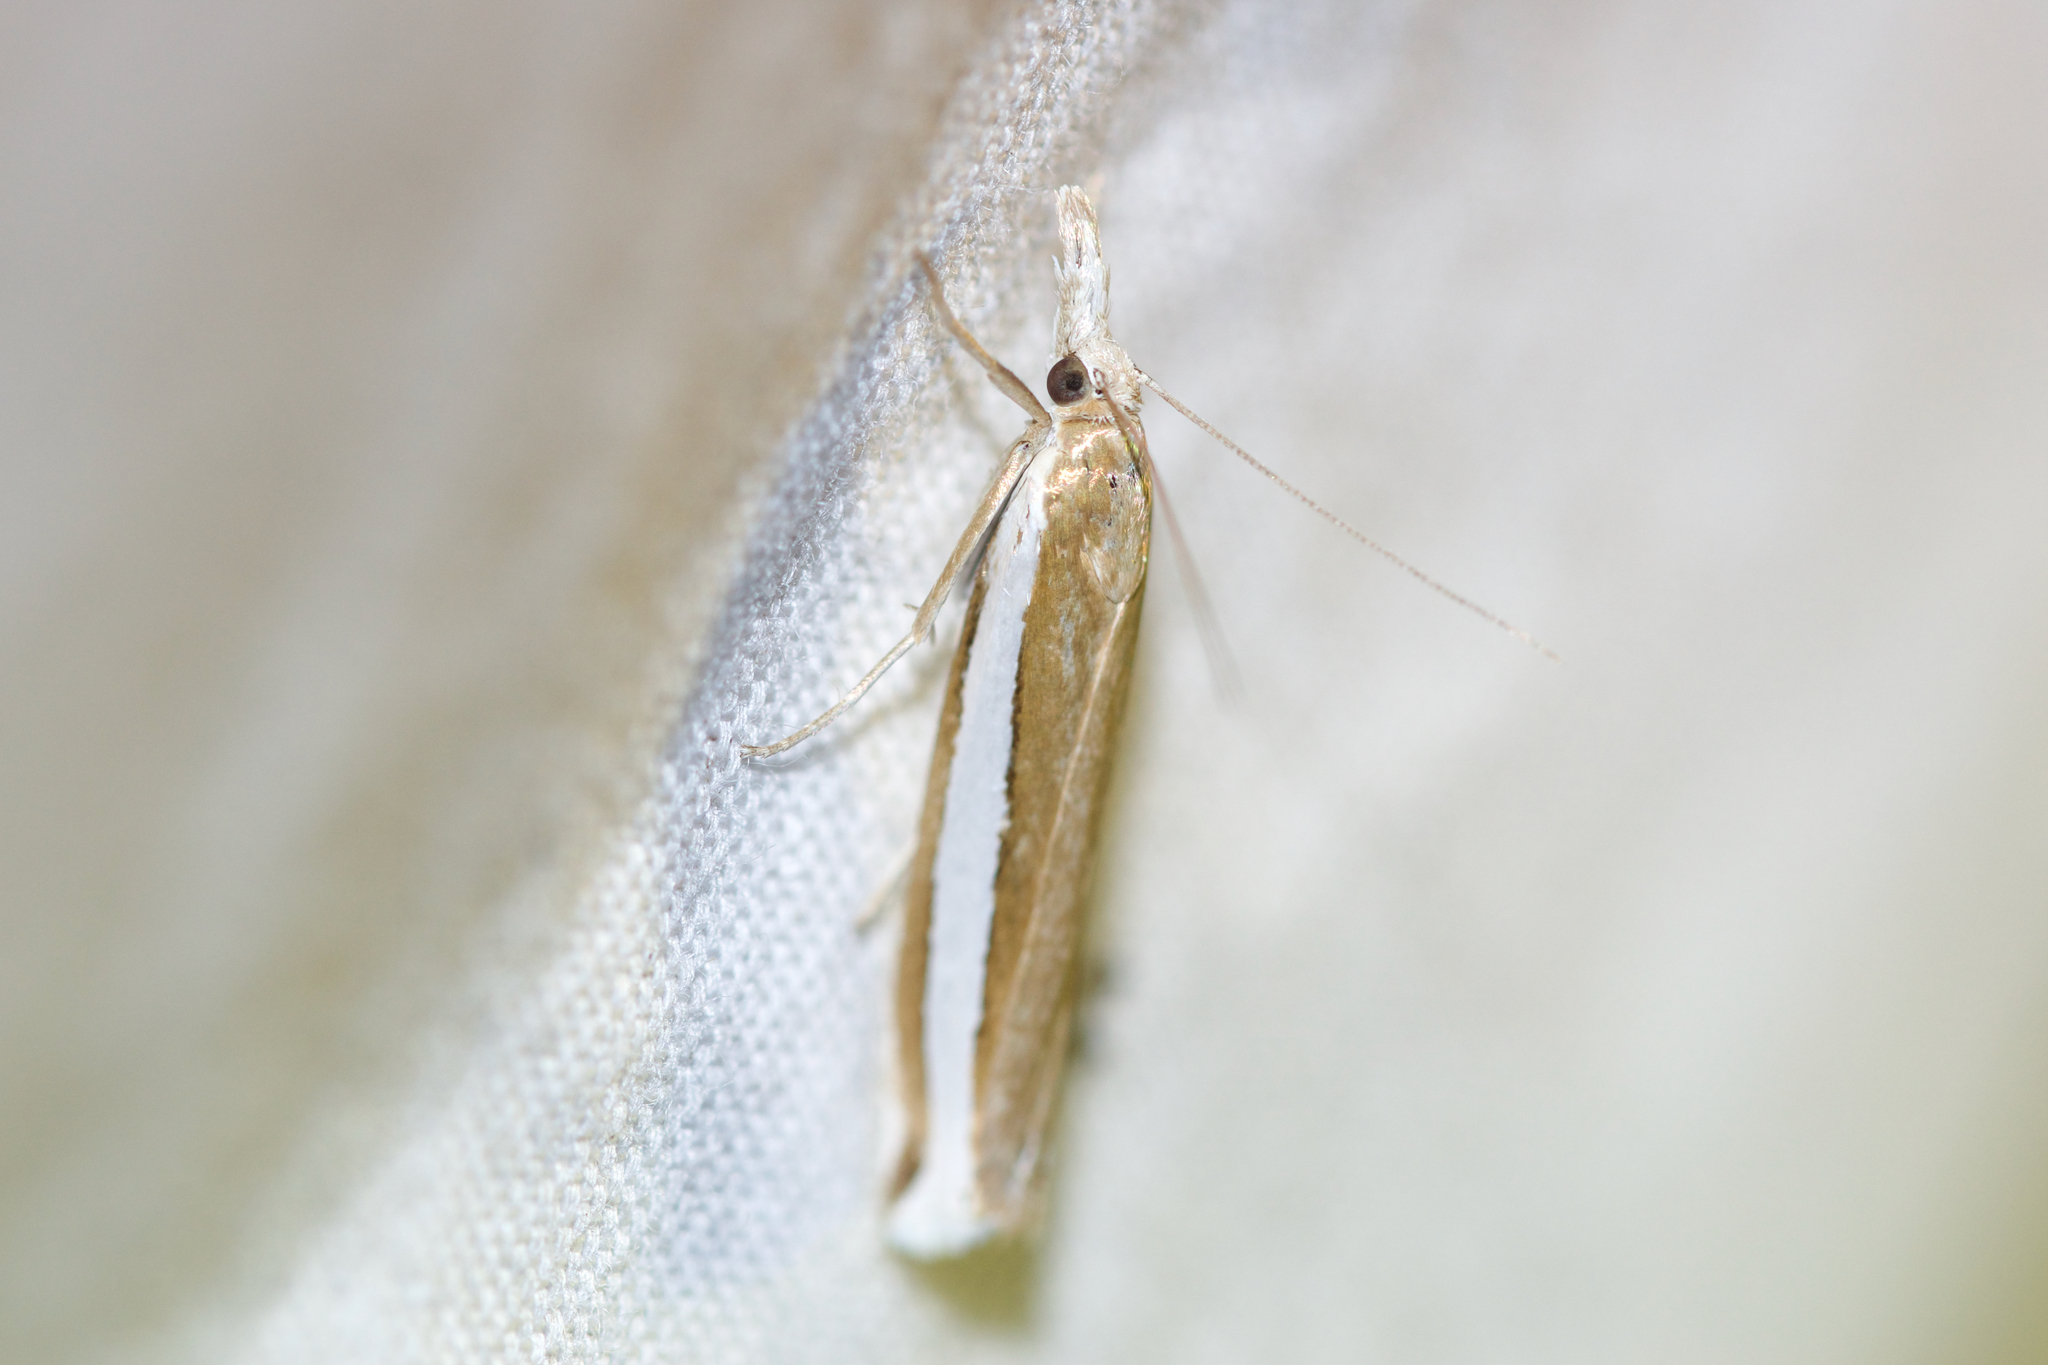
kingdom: Animalia
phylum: Arthropoda
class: Insecta
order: Lepidoptera
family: Crambidae
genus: Crambus
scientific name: Crambus unistriatellus
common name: Wide-stripe grass-veneer moth
